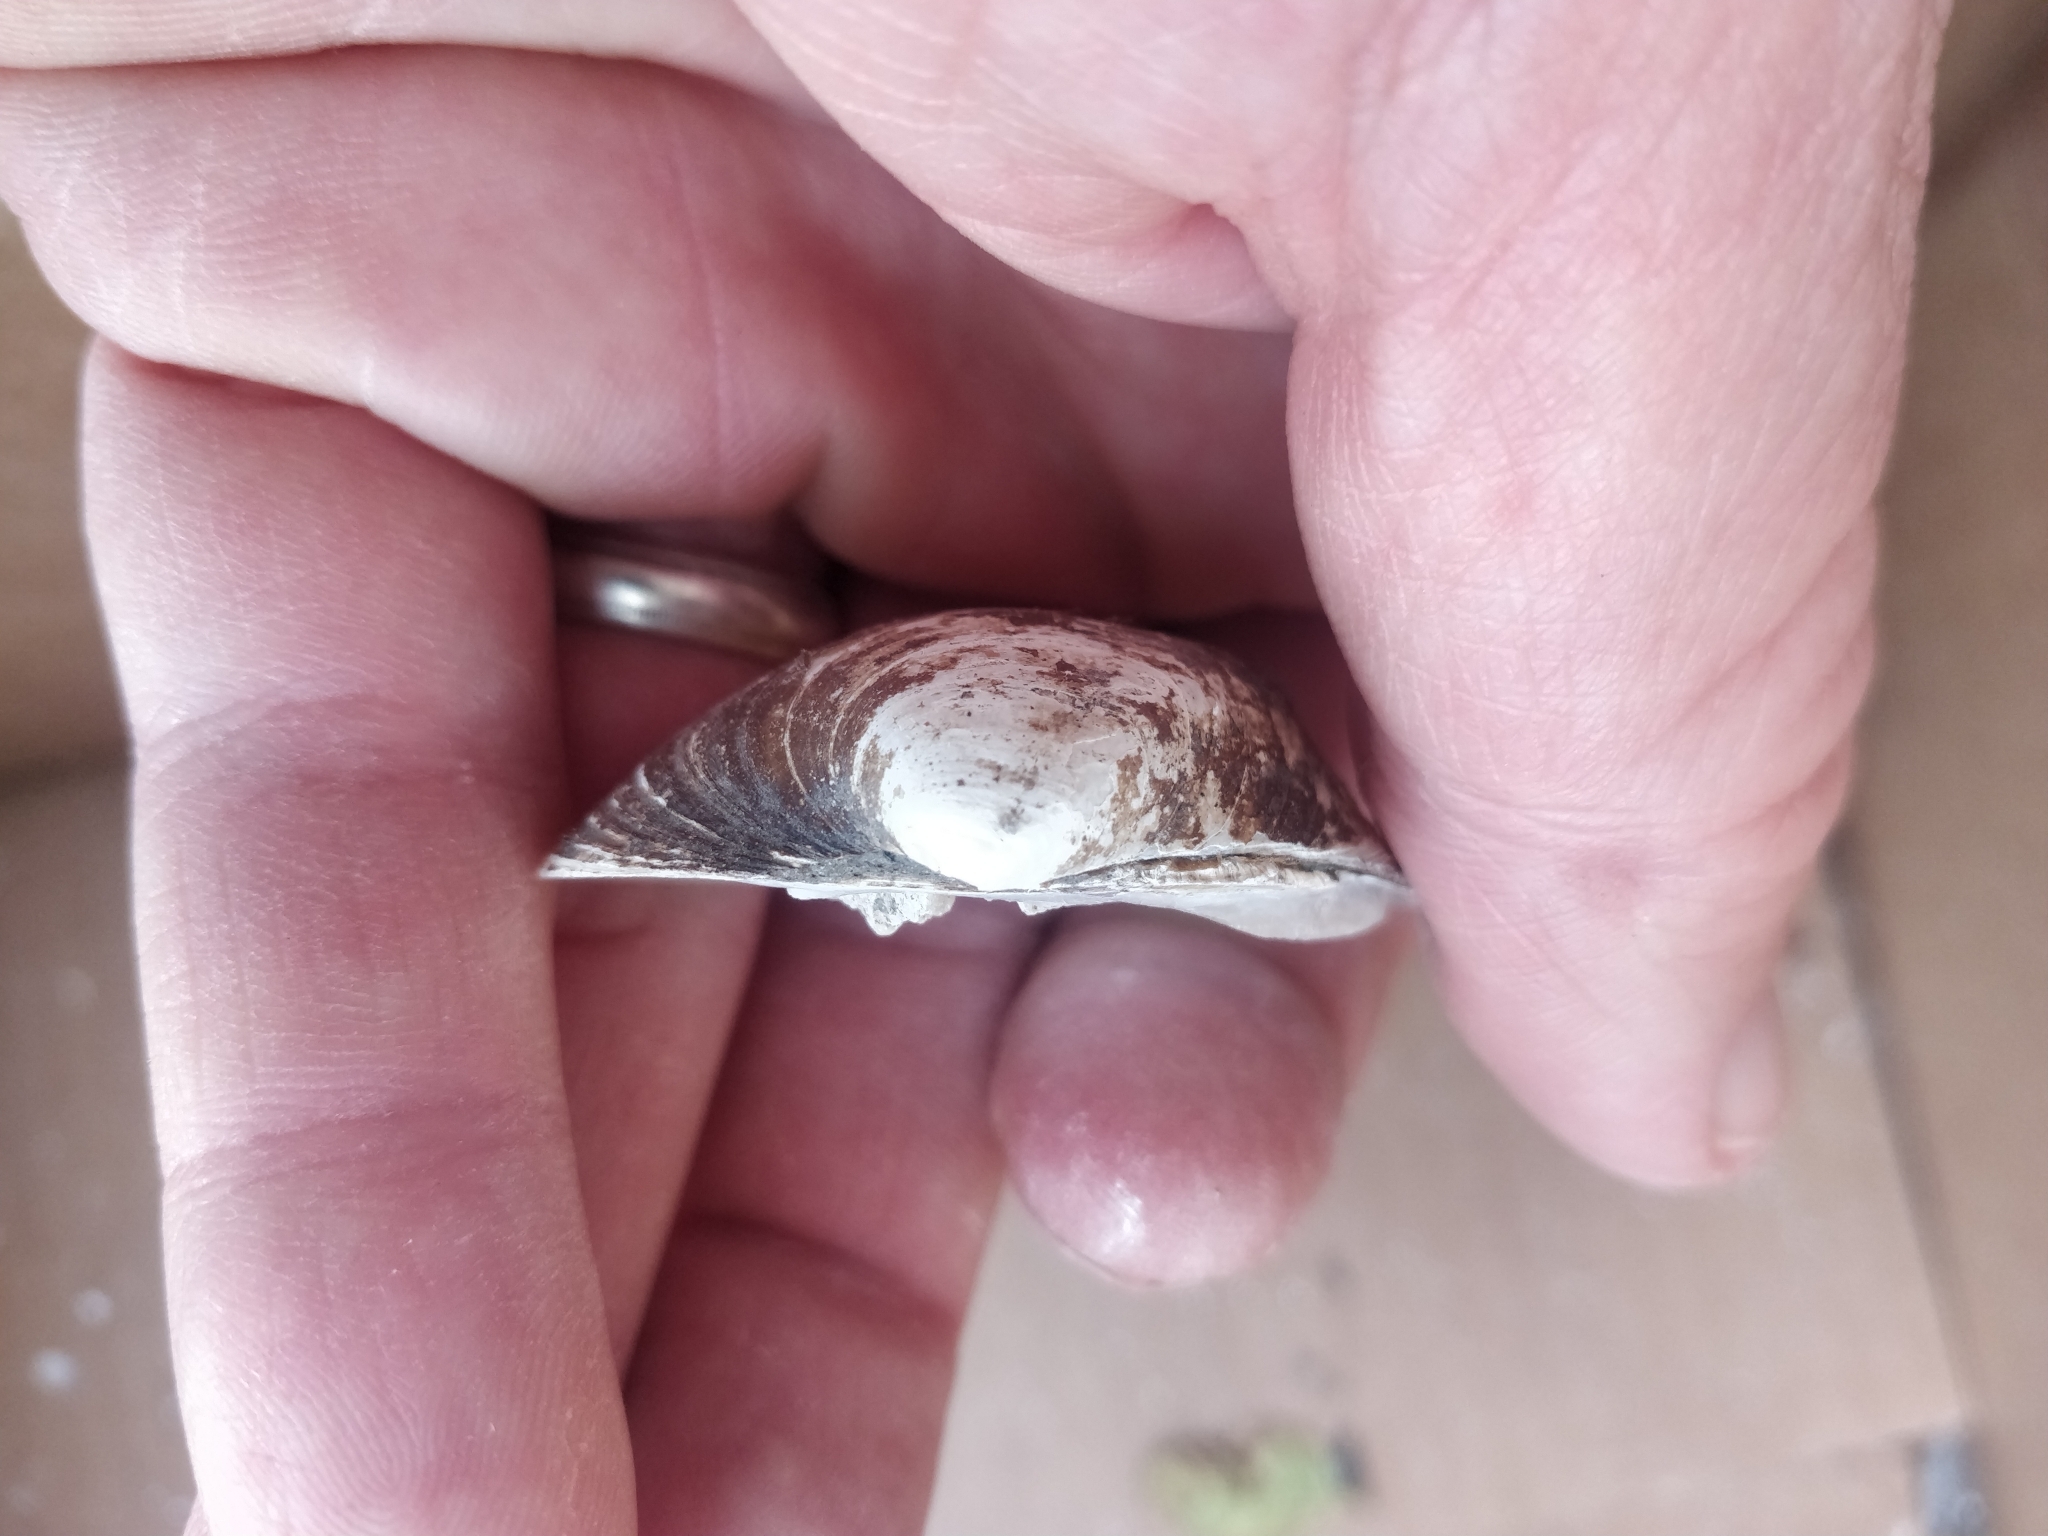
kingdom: Animalia
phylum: Mollusca
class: Bivalvia
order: Unionida
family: Unionidae
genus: Cyclonaias
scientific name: Cyclonaias pustulosa
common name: Pimpleback
